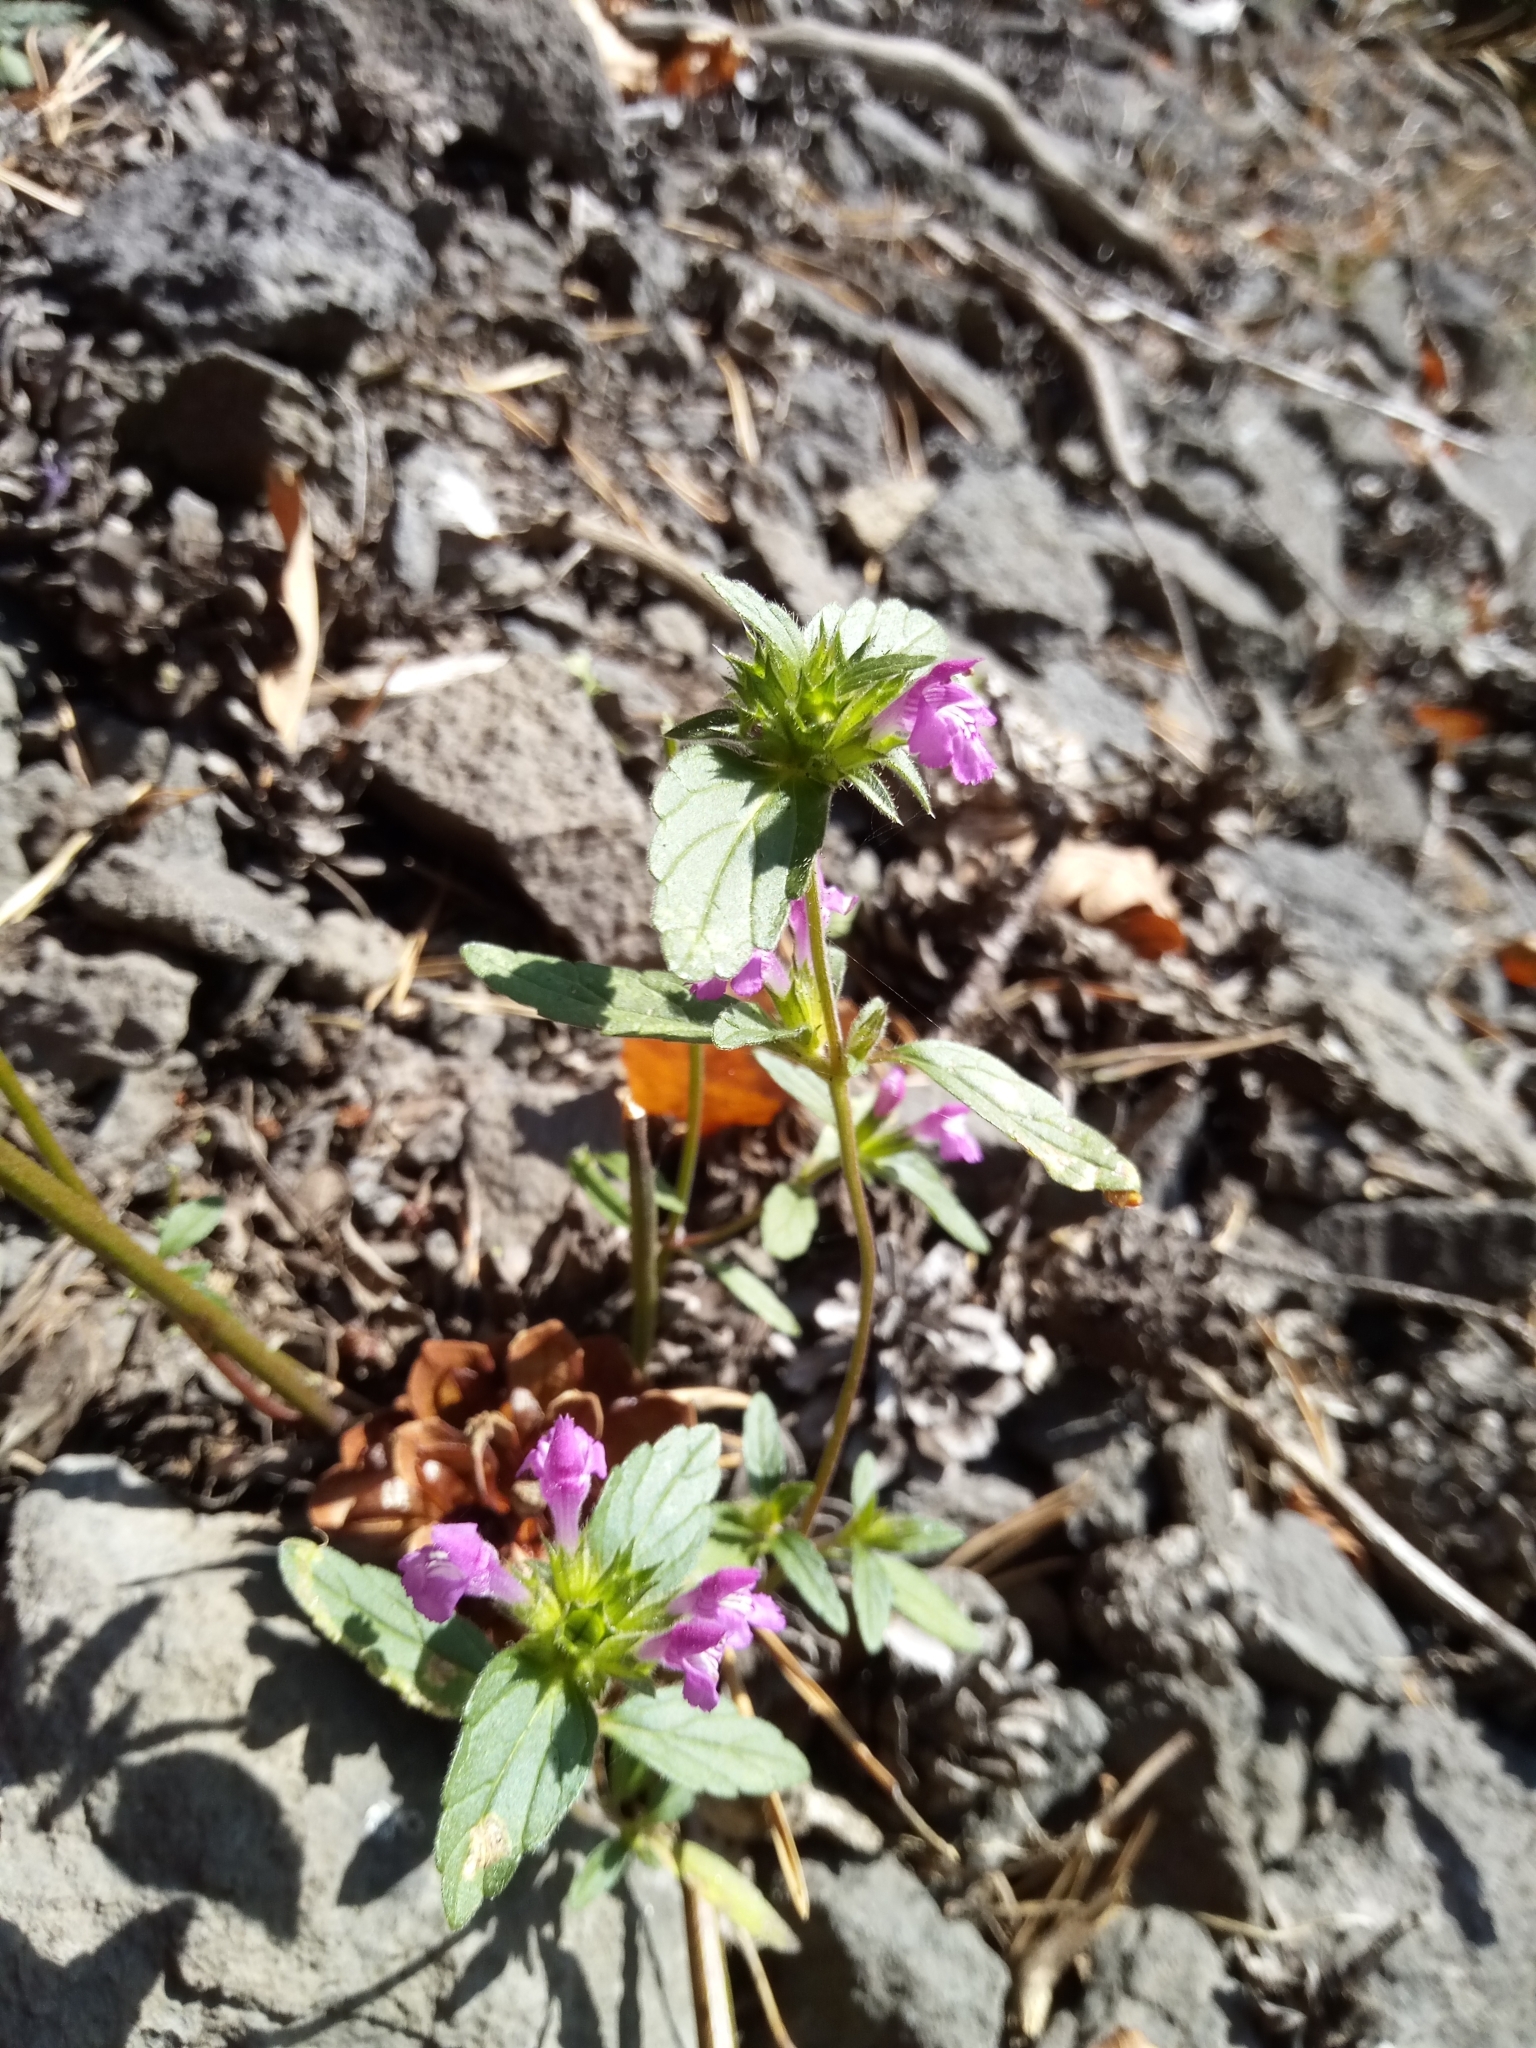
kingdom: Plantae
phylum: Tracheophyta
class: Magnoliopsida
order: Lamiales
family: Lamiaceae
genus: Galeopsis
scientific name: Galeopsis ladanum
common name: Broad-leaved hemp-nettle
